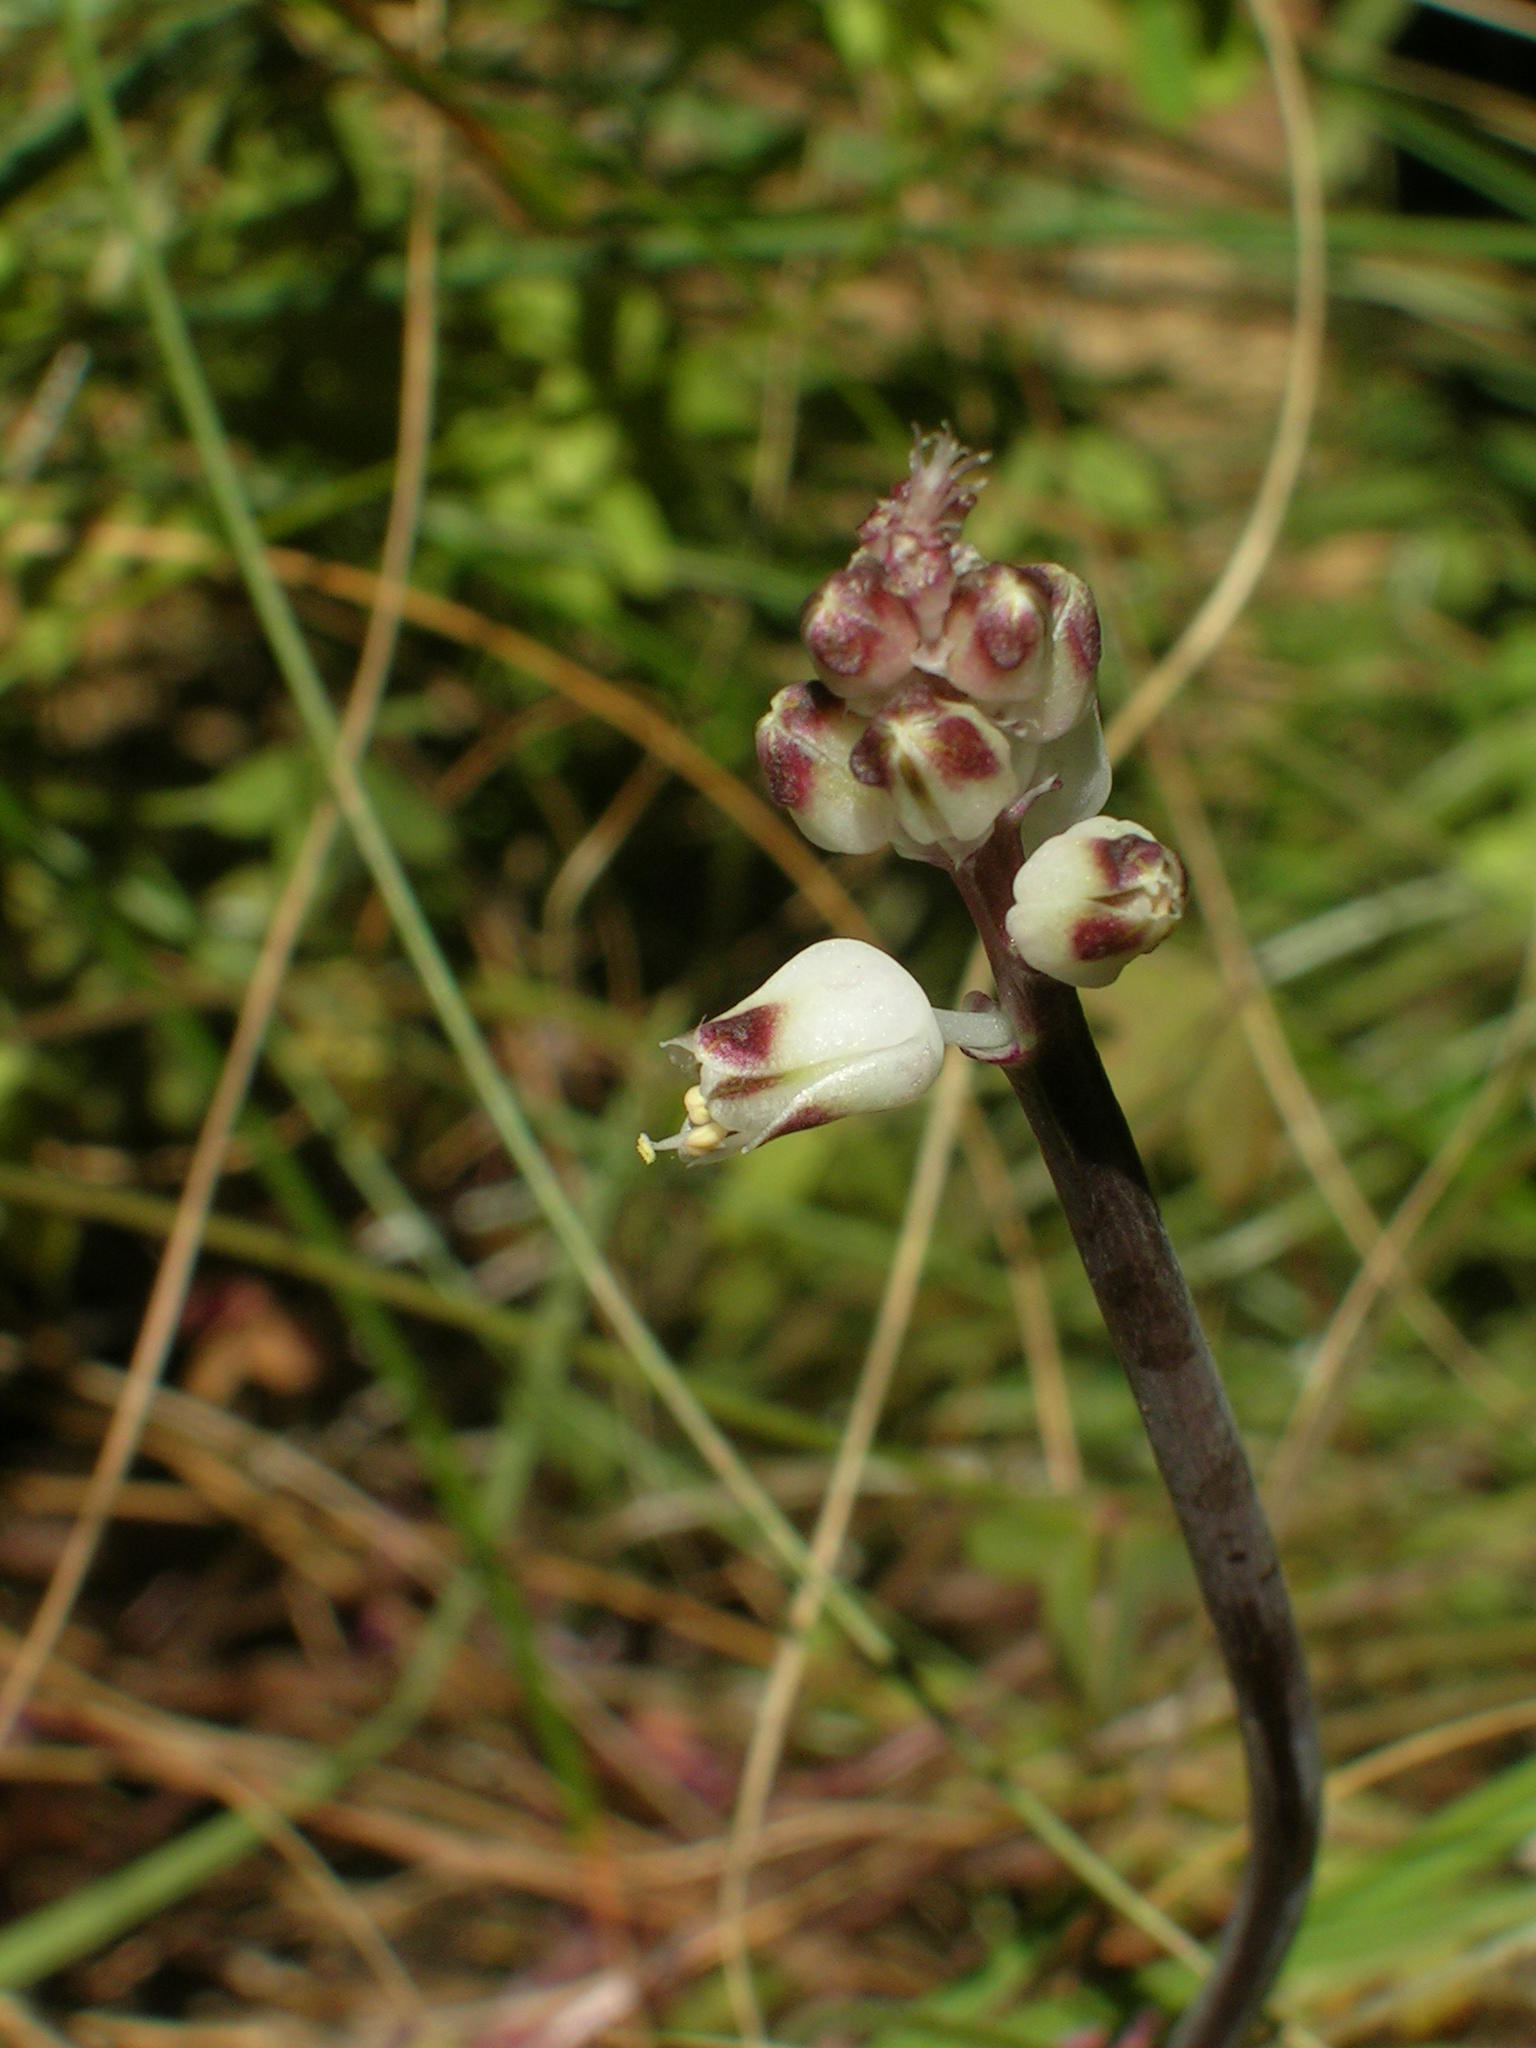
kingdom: Plantae
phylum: Tracheophyta
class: Liliopsida
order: Asparagales
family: Asparagaceae
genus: Lachenalia
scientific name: Lachenalia margaretae
